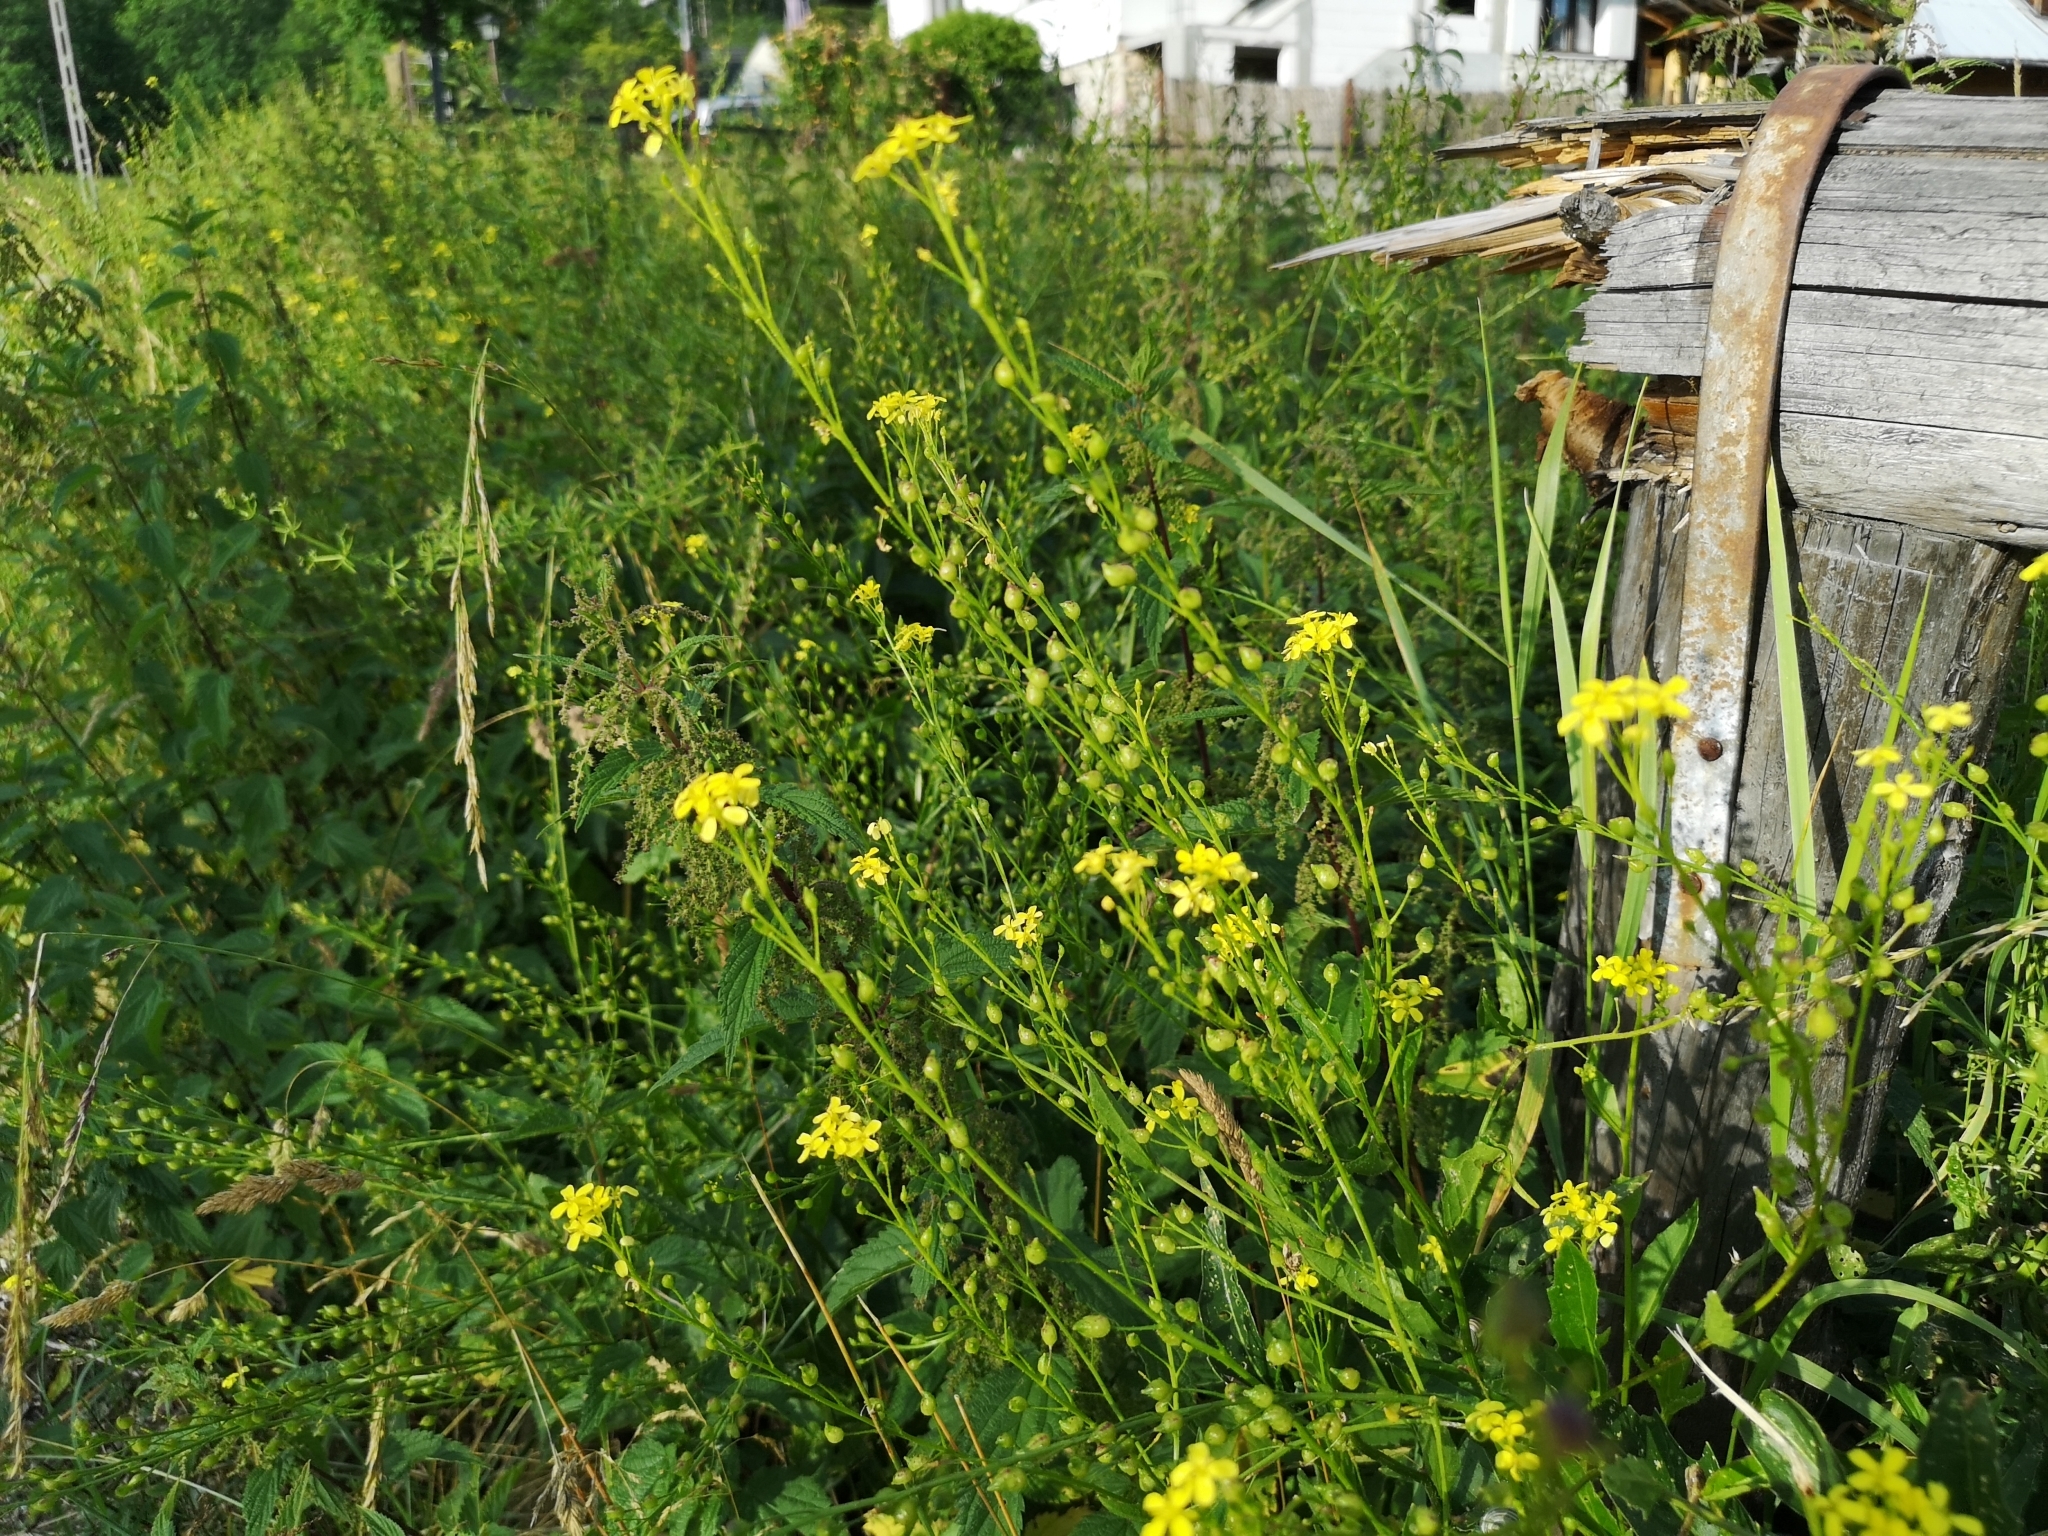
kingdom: Plantae
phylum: Tracheophyta
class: Magnoliopsida
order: Brassicales
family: Brassicaceae
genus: Bunias
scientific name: Bunias orientalis
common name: Warty-cabbage
